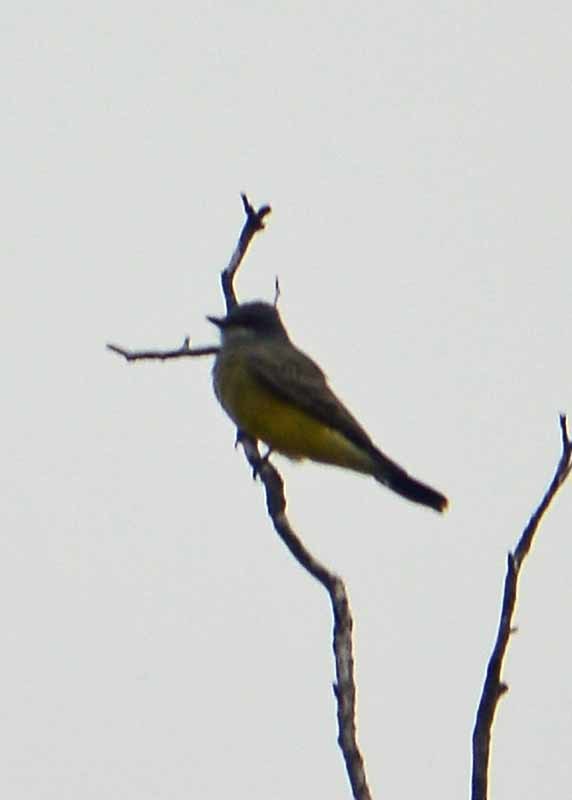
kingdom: Animalia
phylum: Chordata
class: Aves
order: Passeriformes
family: Tyrannidae
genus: Tyrannus
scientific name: Tyrannus vociferans
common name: Cassin's kingbird
